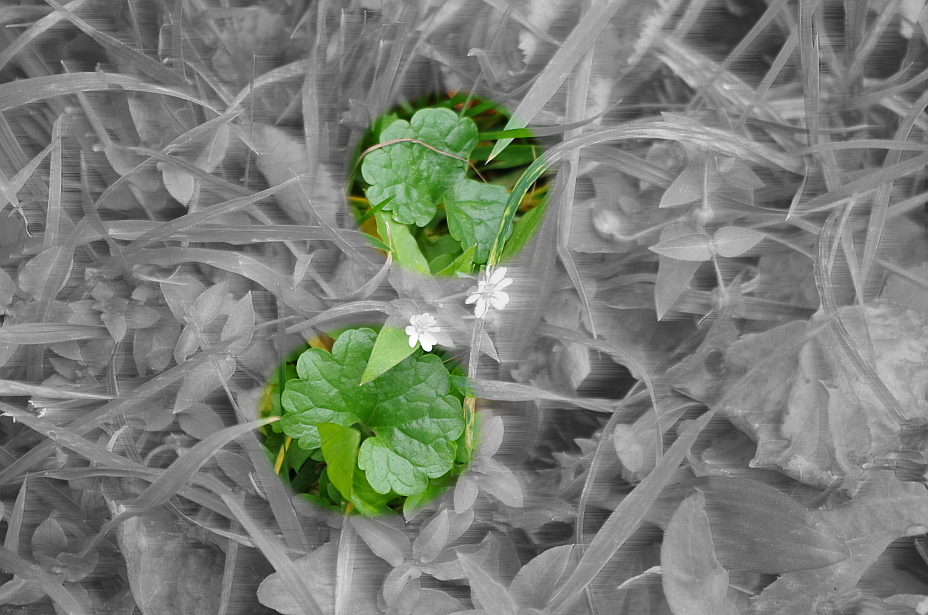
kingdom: Plantae
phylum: Tracheophyta
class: Magnoliopsida
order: Lamiales
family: Lamiaceae
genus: Glechoma
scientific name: Glechoma hederacea
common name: Ground ivy
